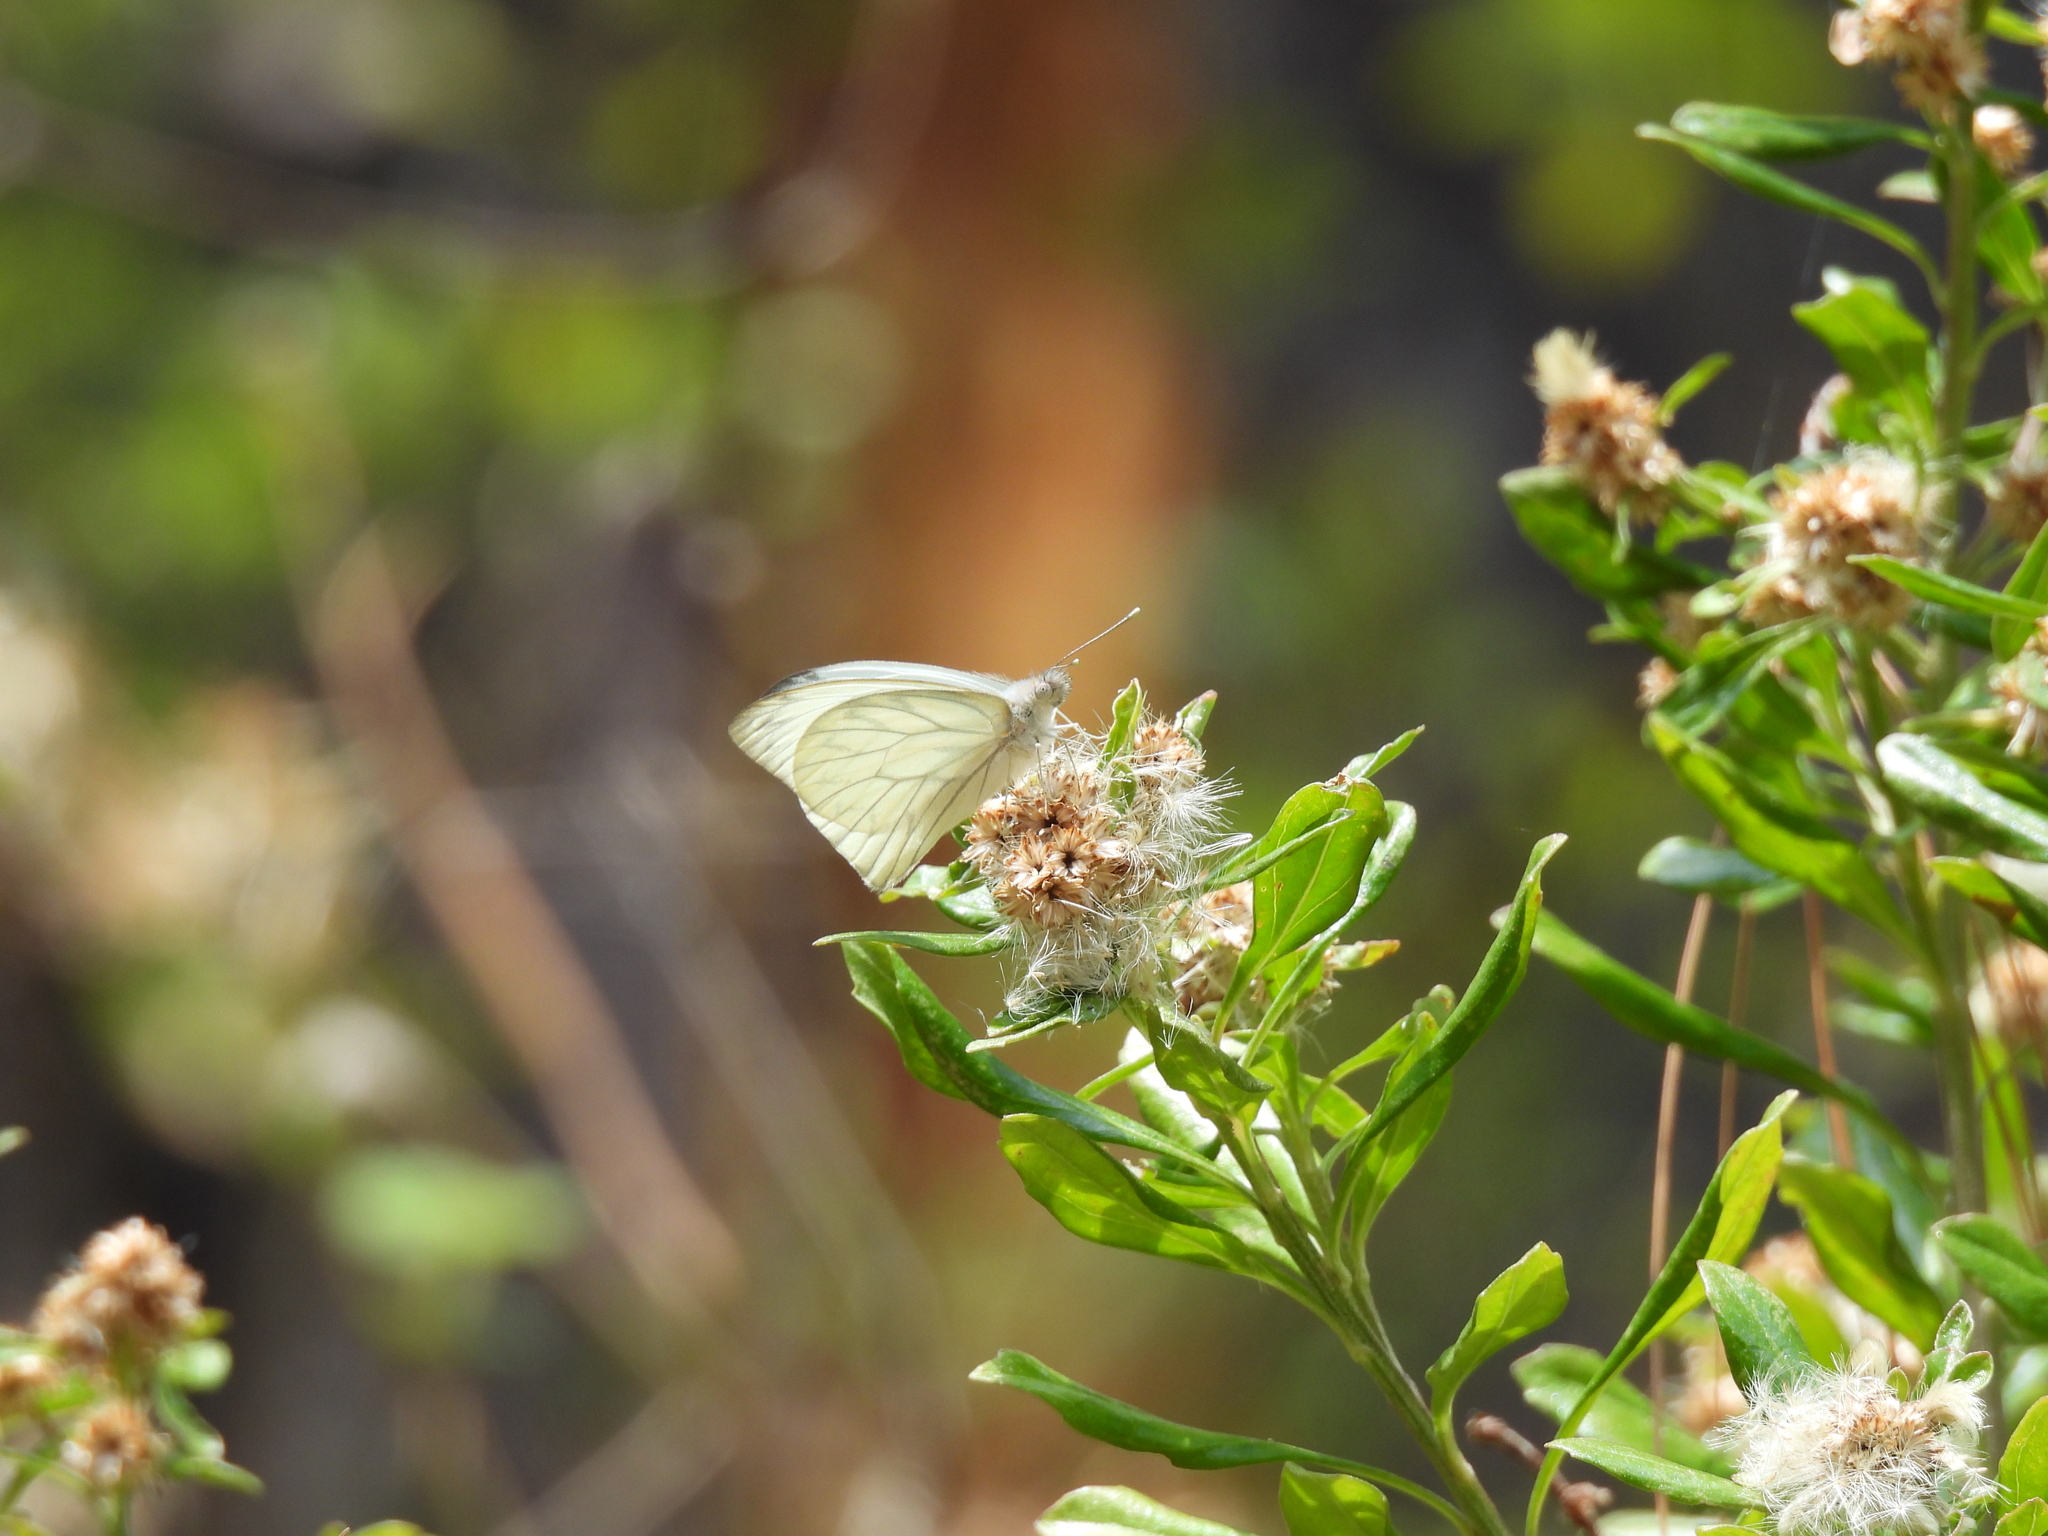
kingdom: Animalia
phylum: Arthropoda
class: Insecta
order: Lepidoptera
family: Pieridae
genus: Hesperocharis
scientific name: Hesperocharis costaricensis
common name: Pallid tilewhite
